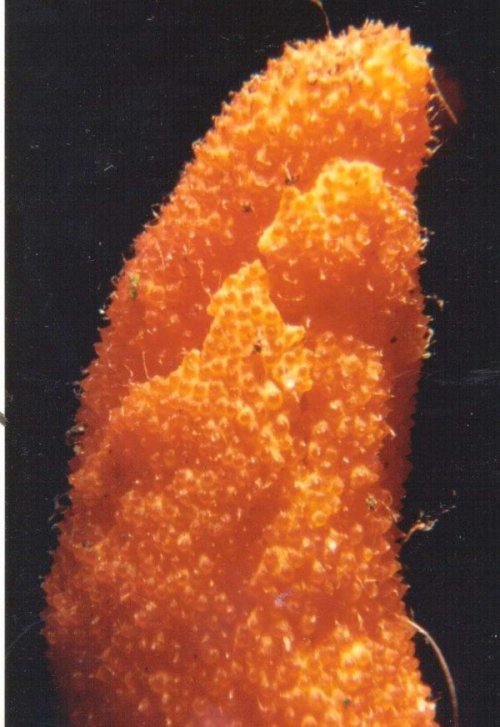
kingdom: Fungi
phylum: Ascomycota
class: Sordariomycetes
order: Hypocreales
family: Cordycipitaceae
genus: Cordyceps
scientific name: Cordyceps militaris
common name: Scarlet caterpillar fungus
